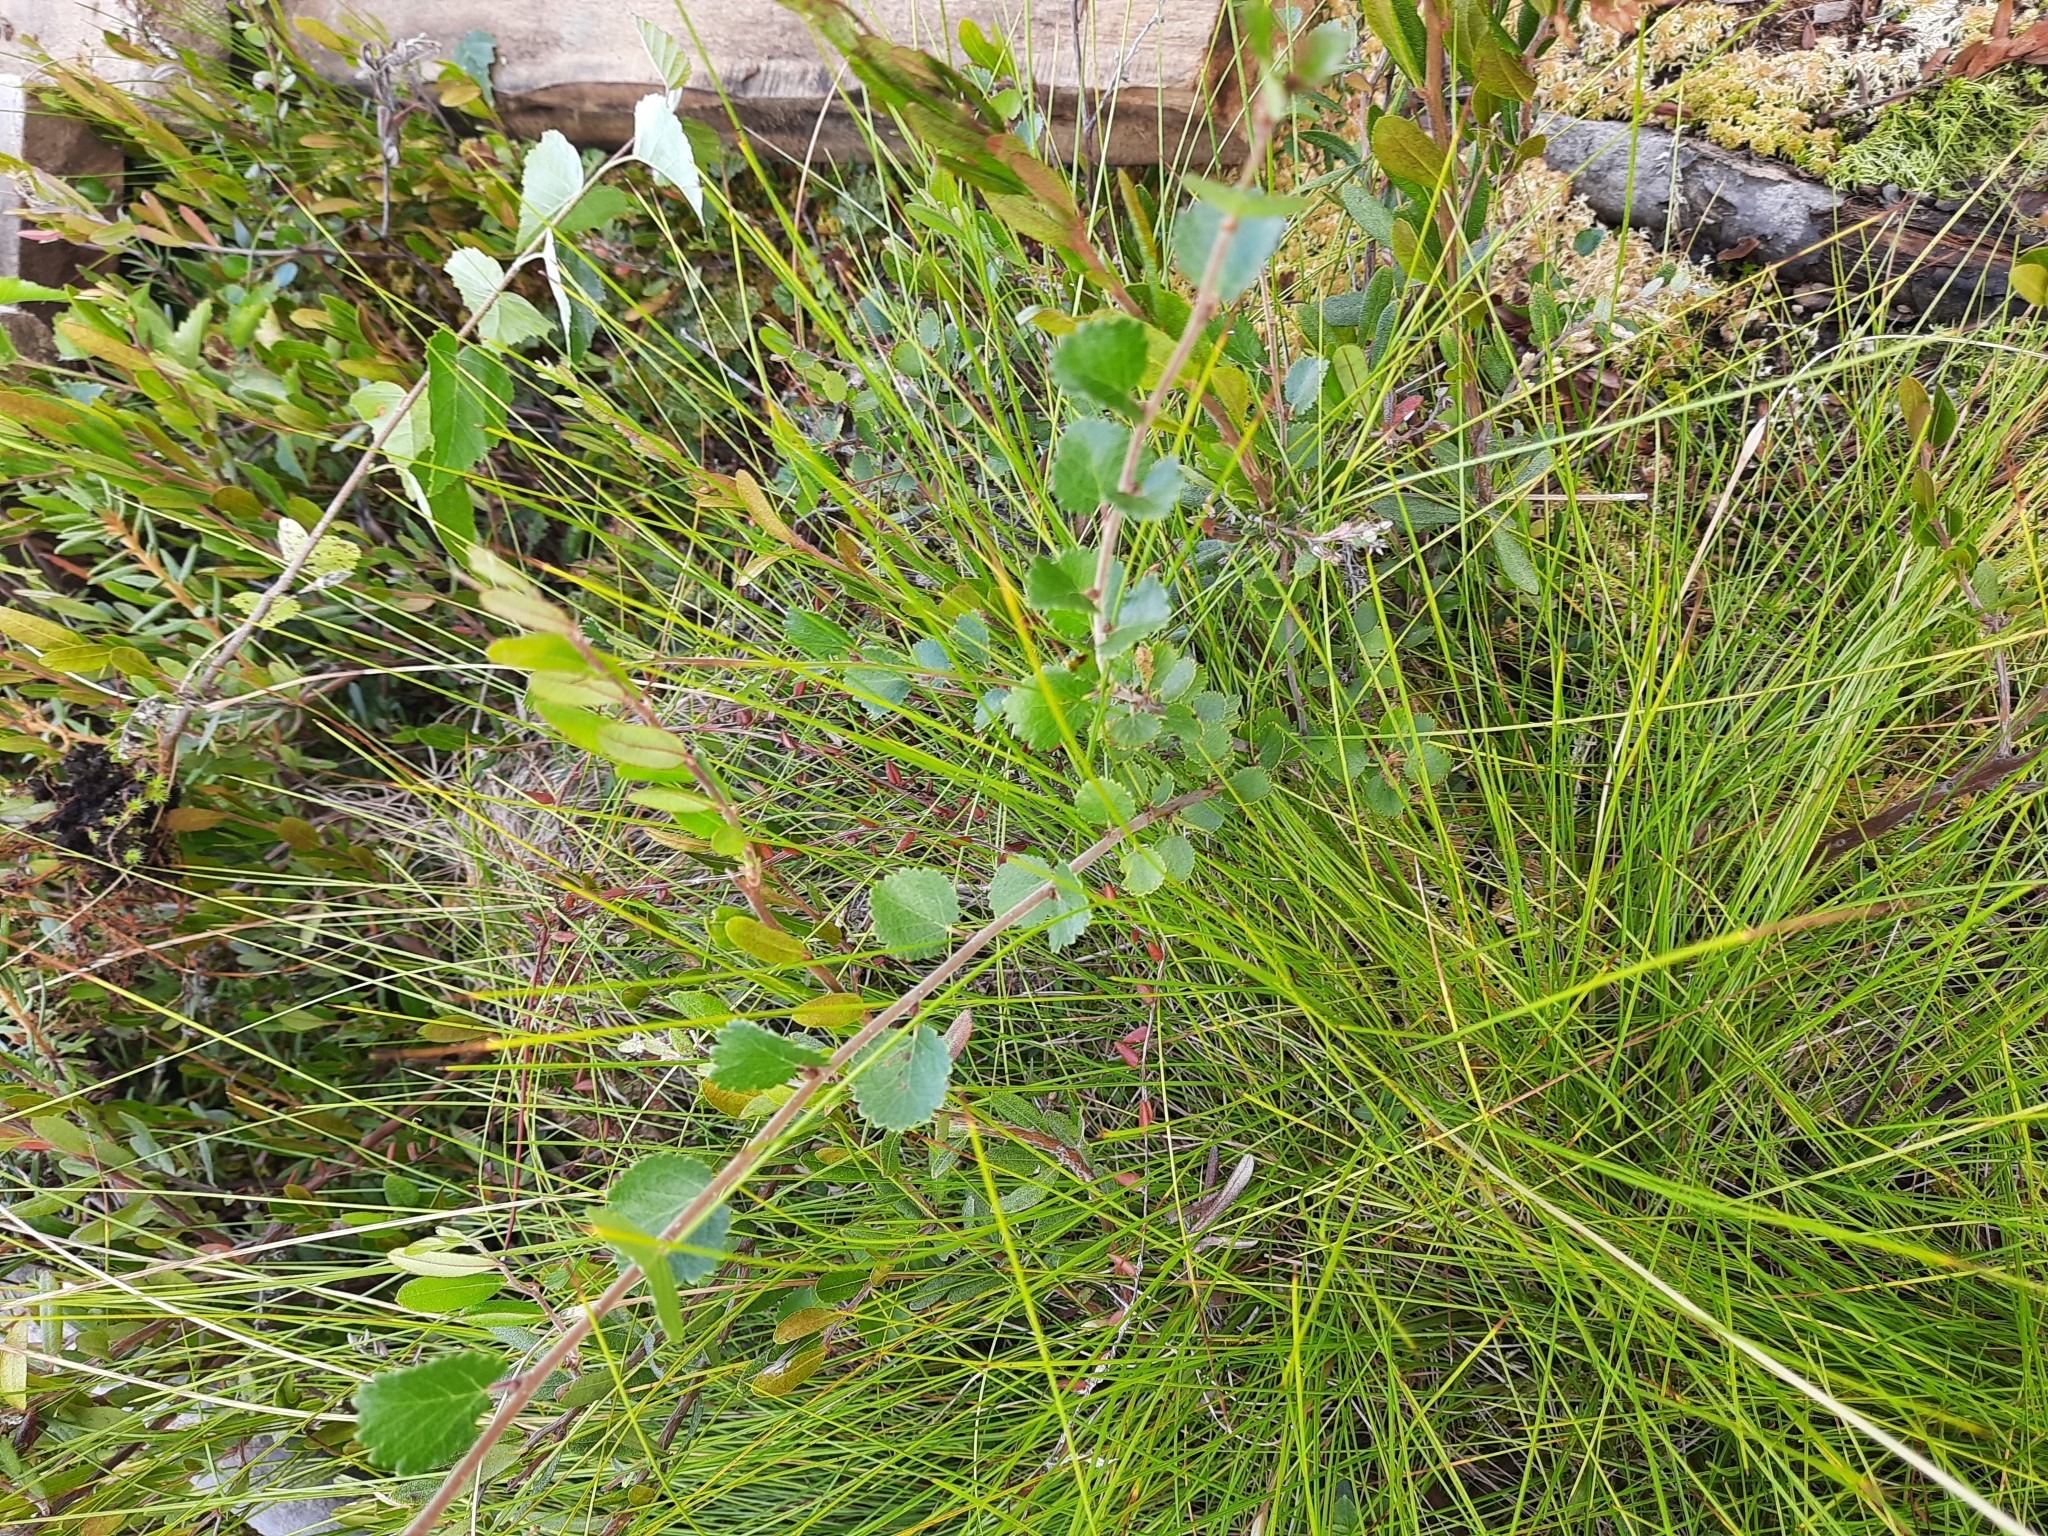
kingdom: Plantae
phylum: Tracheophyta
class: Magnoliopsida
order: Fagales
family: Betulaceae
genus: Betula
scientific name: Betula nana
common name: Arctic dwarf birch
